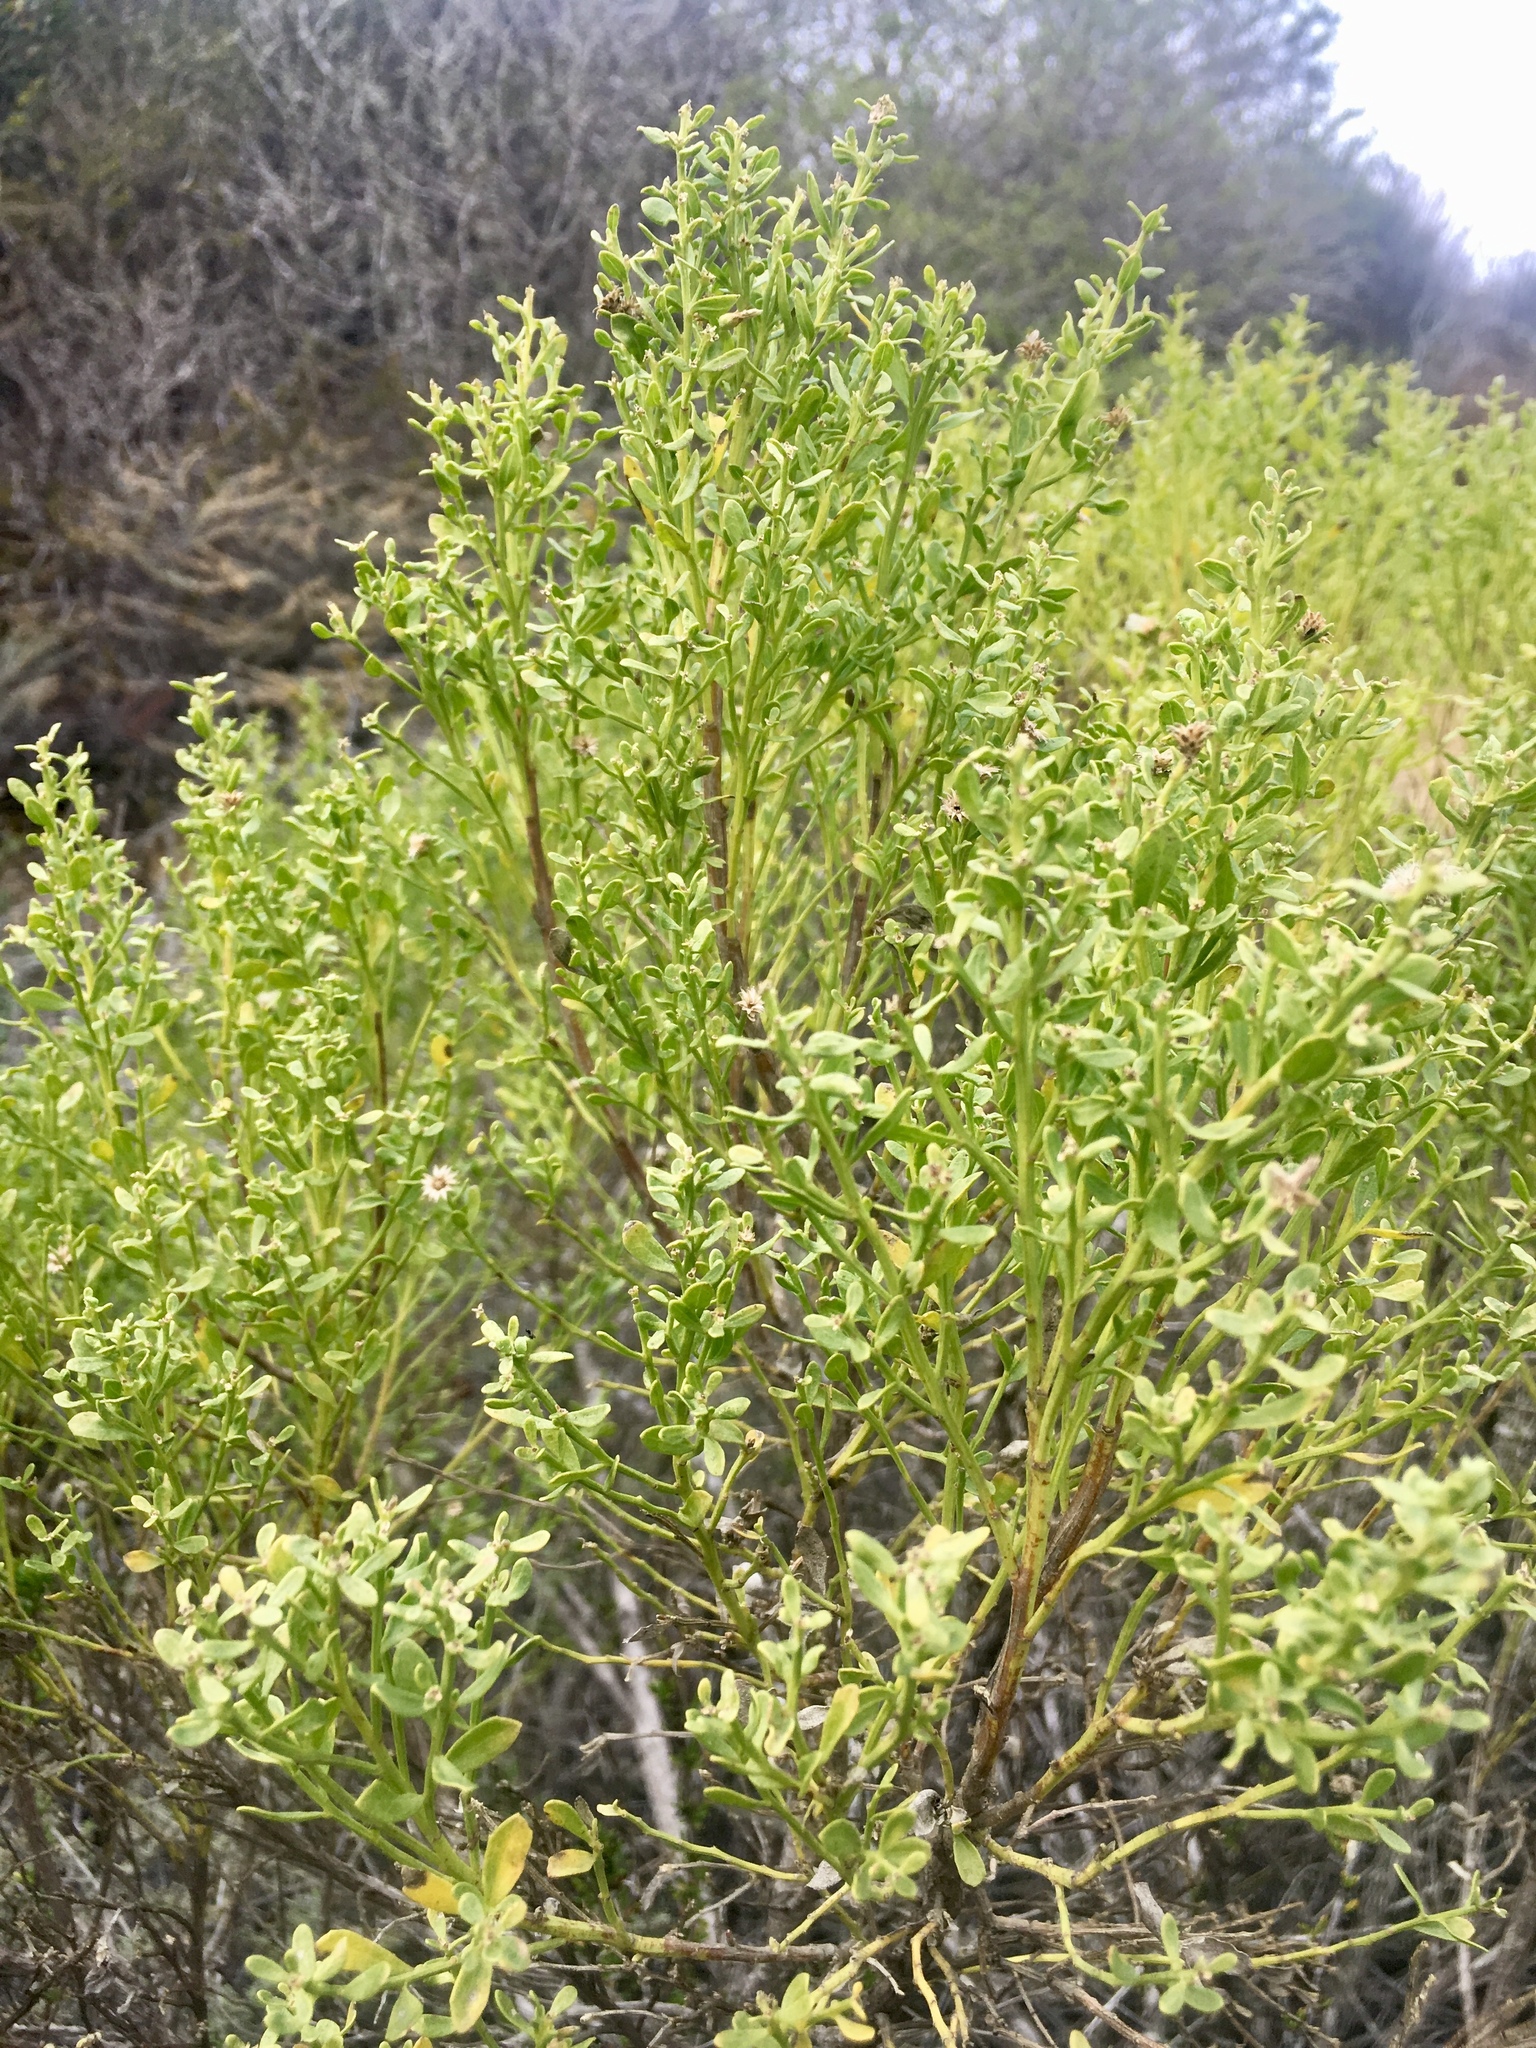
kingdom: Plantae
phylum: Tracheophyta
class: Magnoliopsida
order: Asterales
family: Asteraceae
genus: Baccharis
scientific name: Baccharis pilularis
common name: Coyotebrush
